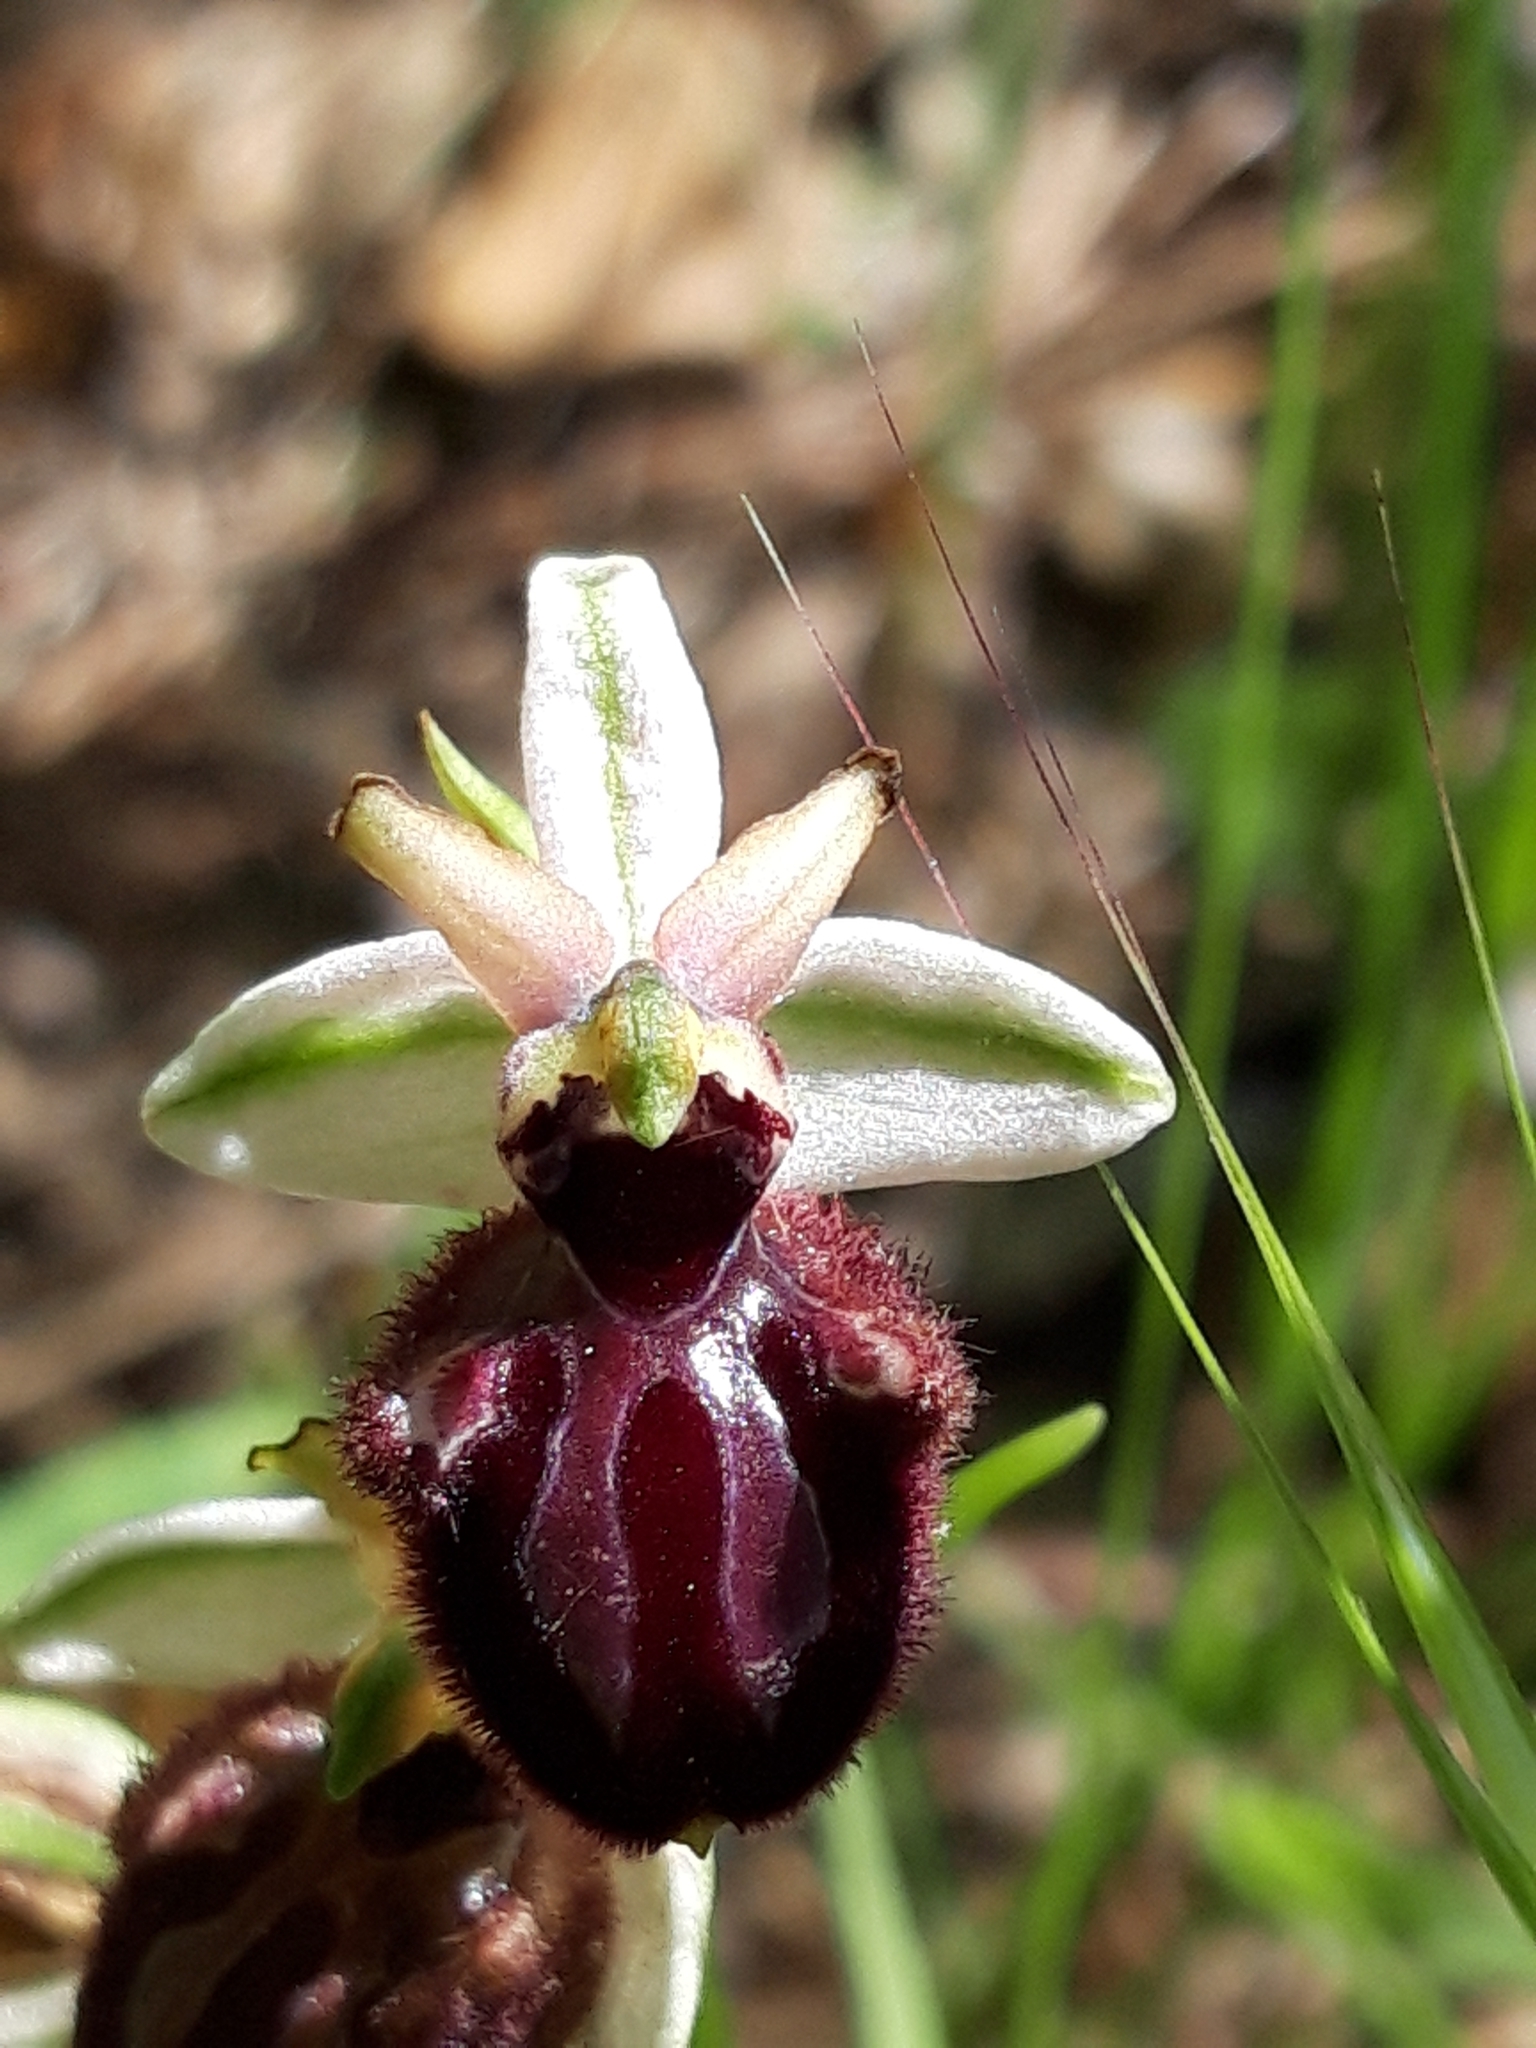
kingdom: Plantae
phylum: Tracheophyta
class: Liliopsida
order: Asparagales
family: Orchidaceae
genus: Ophrys
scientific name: Ophrys sphegodes
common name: Early spider-orchid
